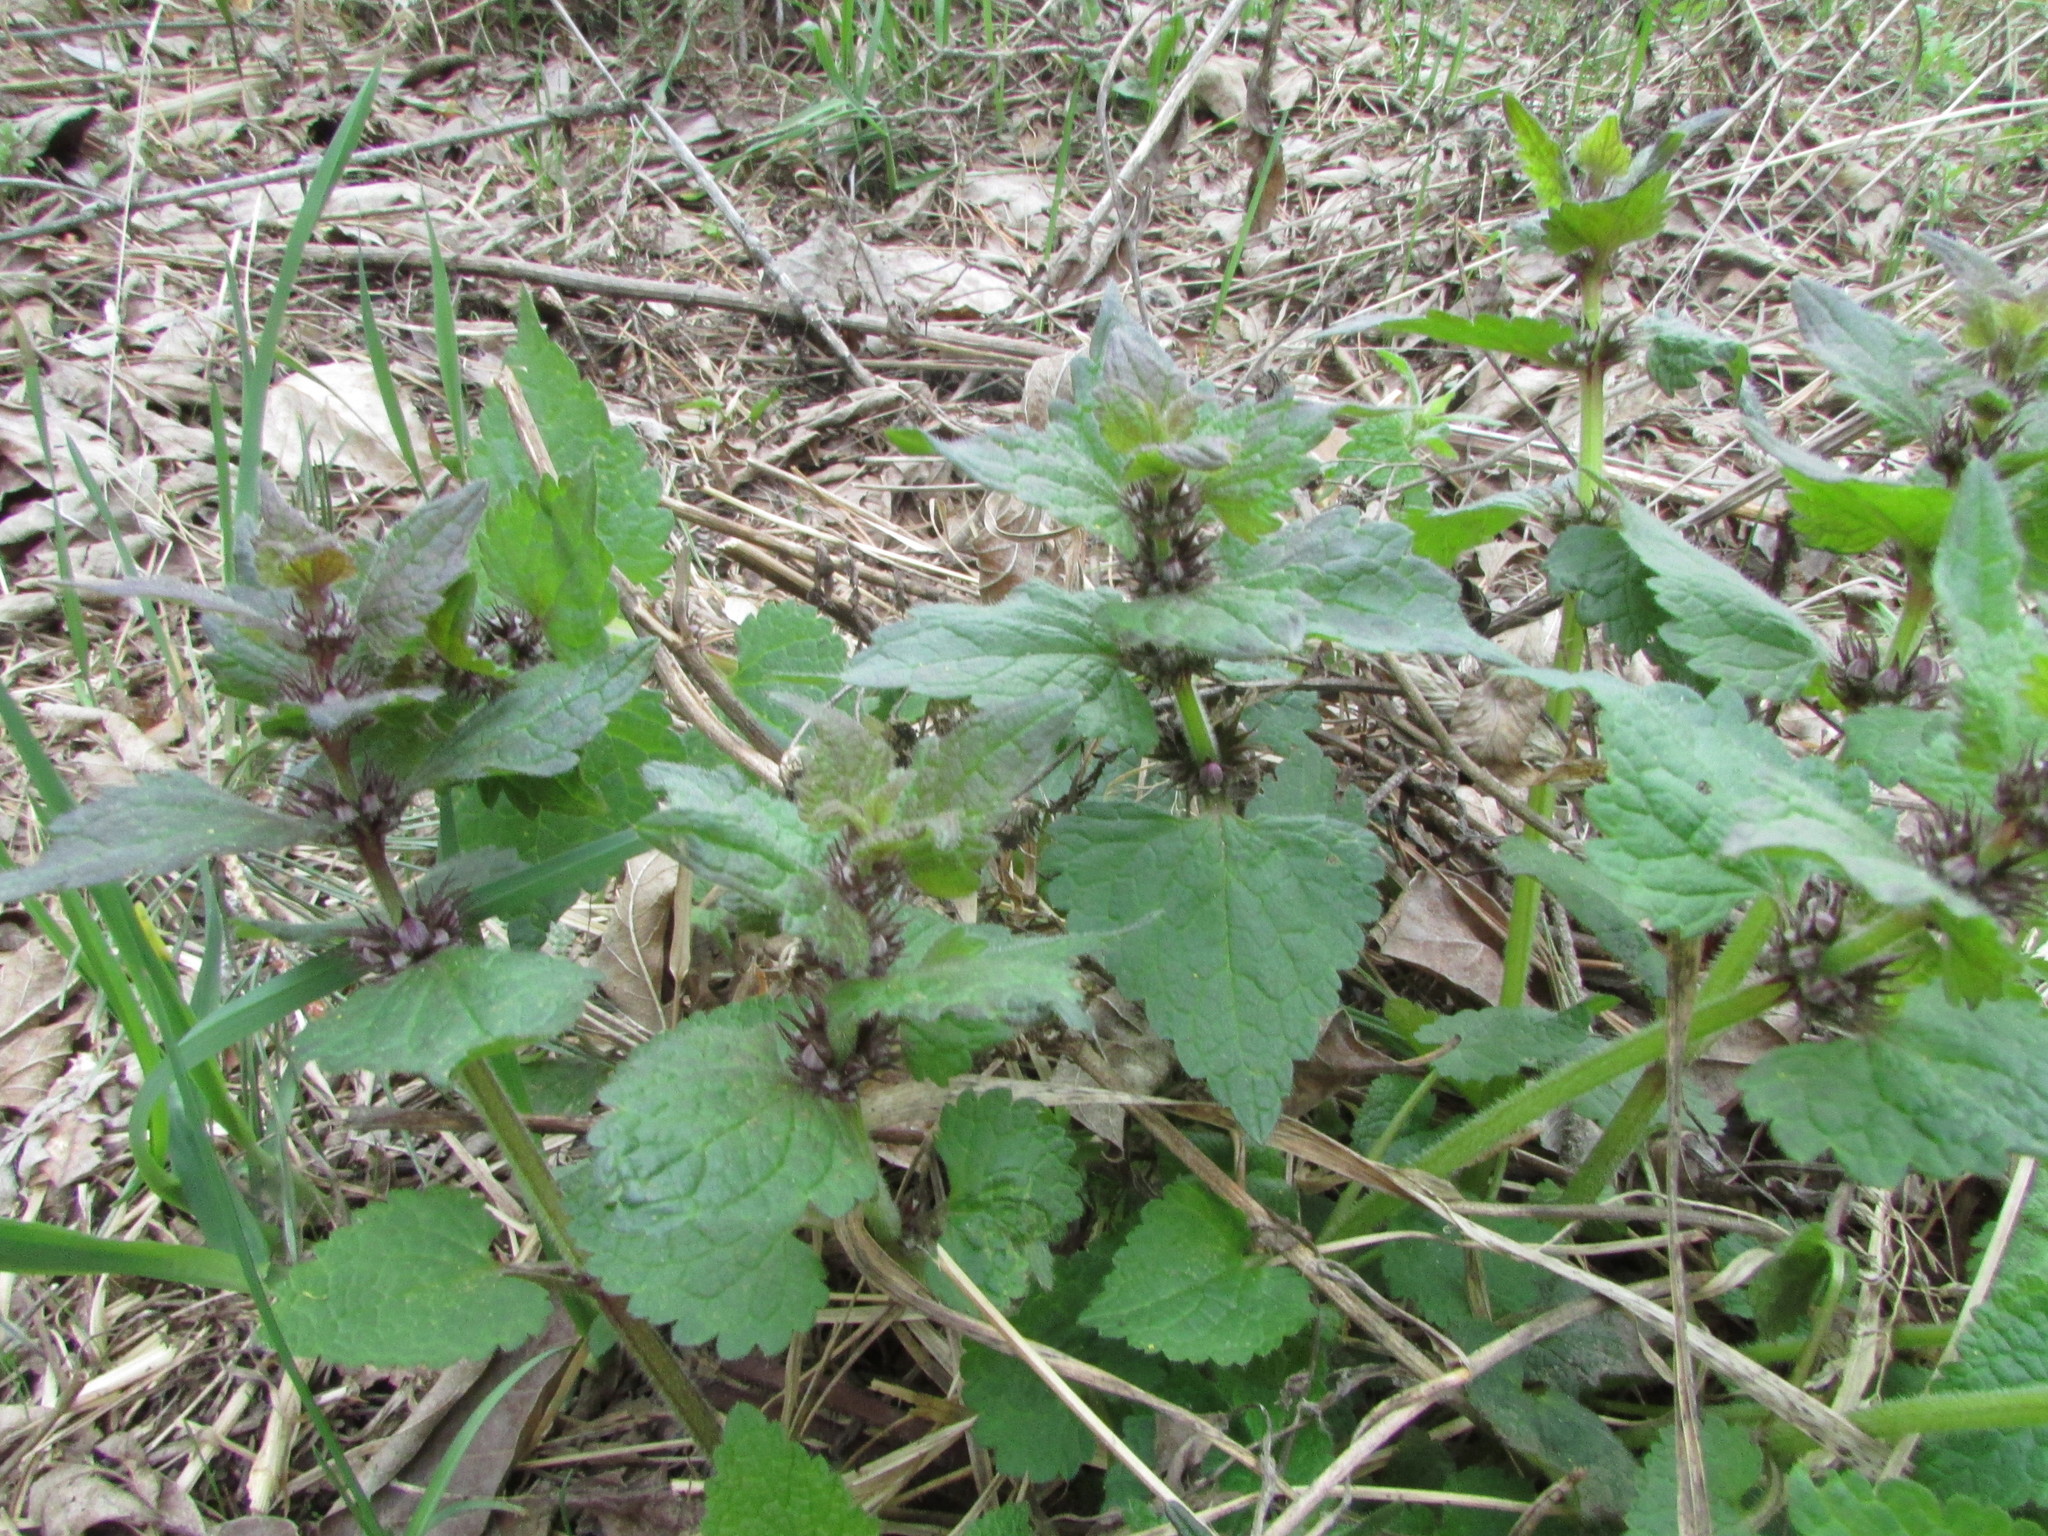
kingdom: Plantae
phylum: Tracheophyta
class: Magnoliopsida
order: Lamiales
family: Lamiaceae
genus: Lamium
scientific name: Lamium maculatum
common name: Spotted dead-nettle
